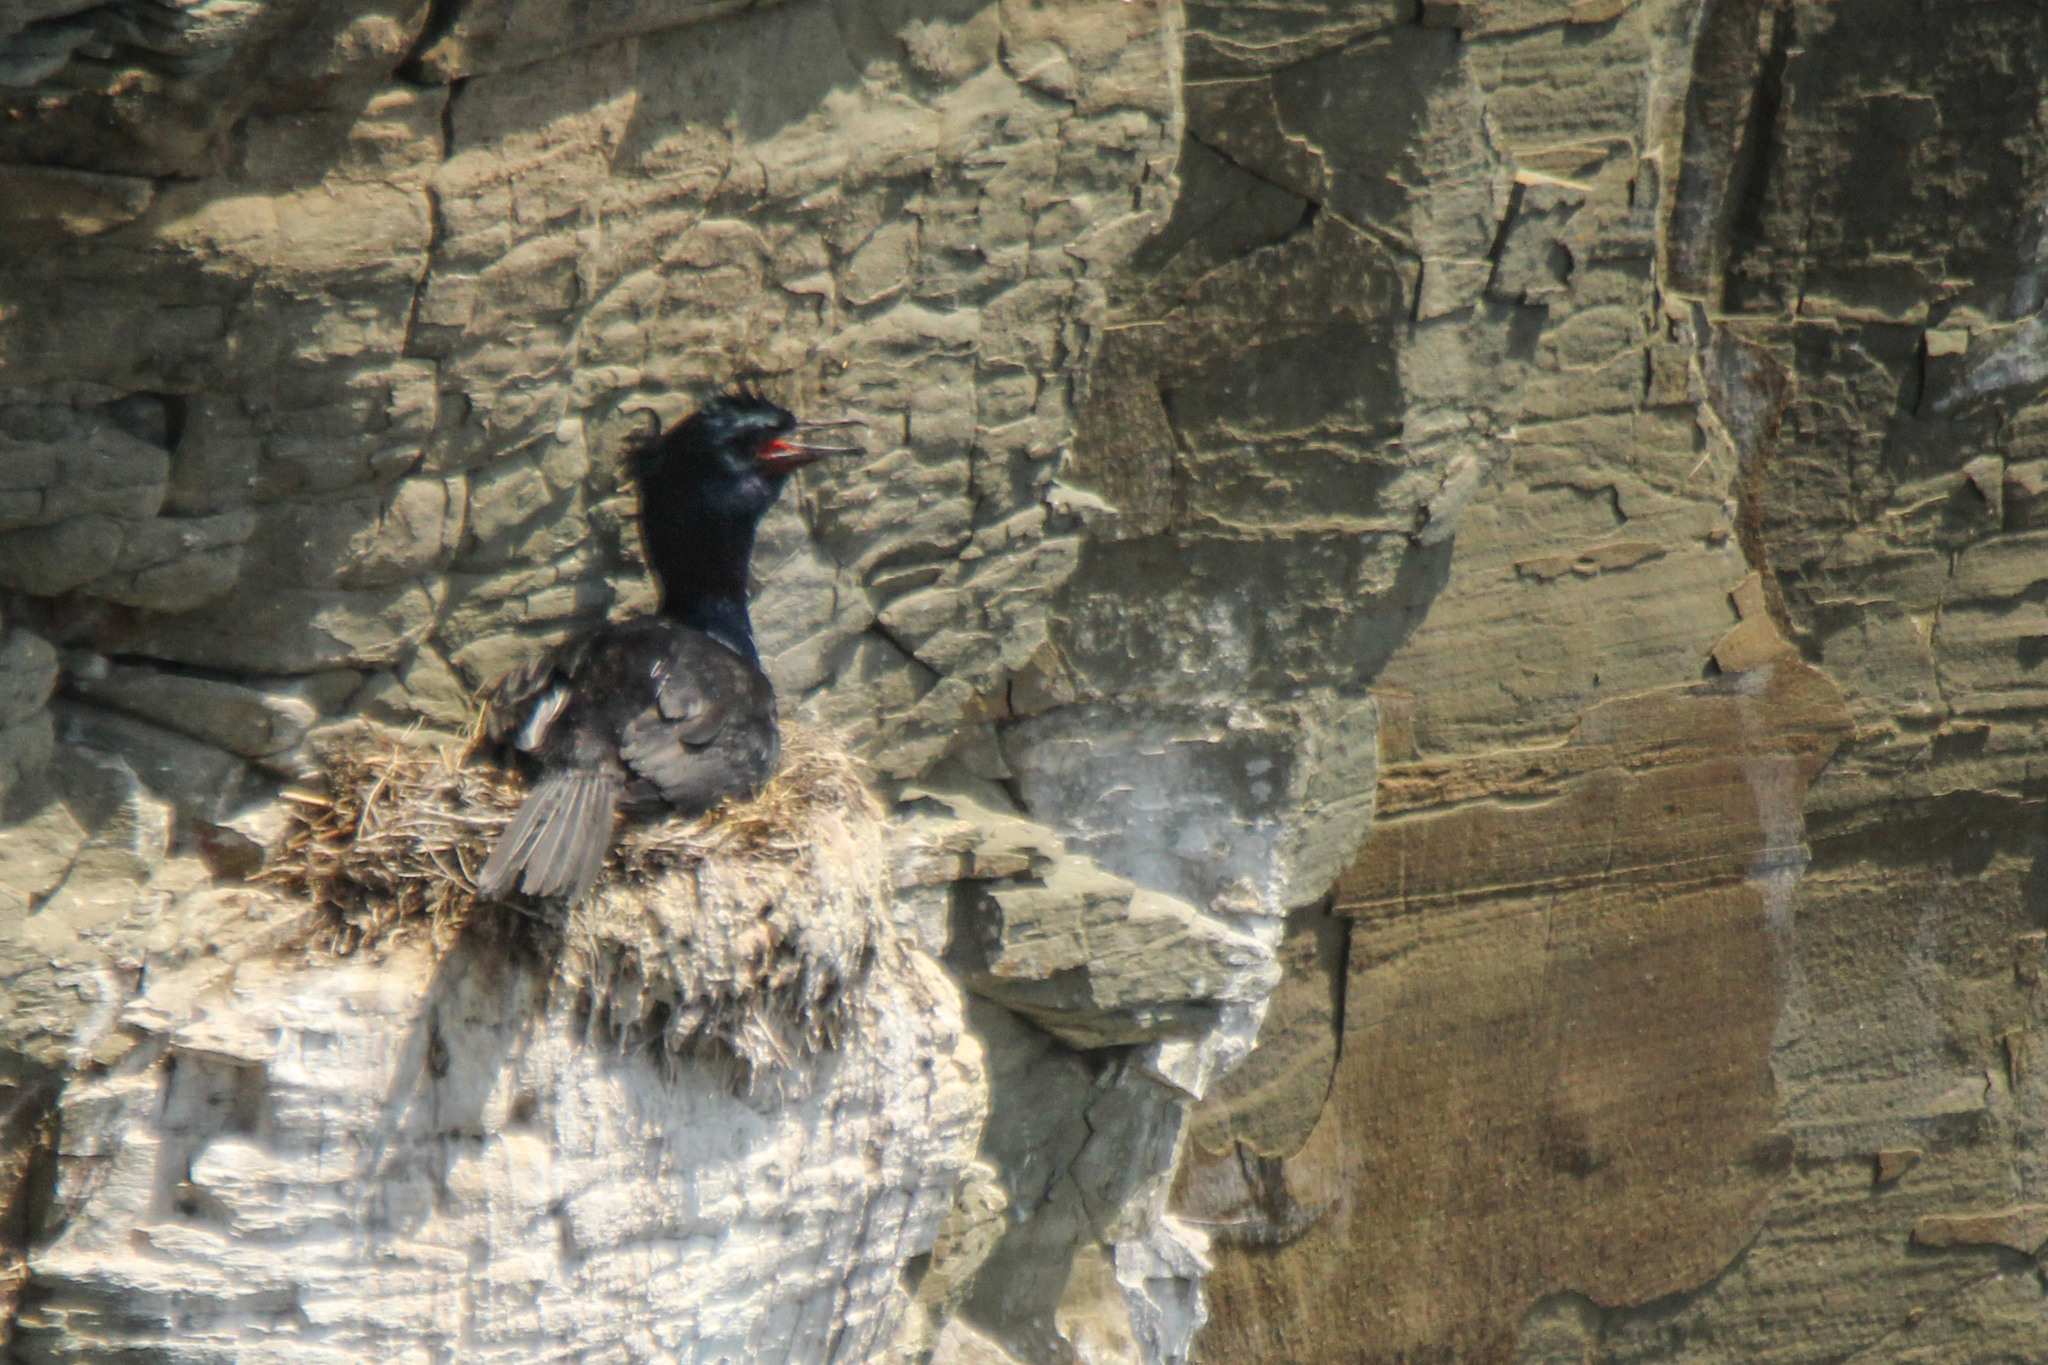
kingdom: Animalia
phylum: Chordata
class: Aves
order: Suliformes
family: Phalacrocoracidae
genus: Phalacrocorax
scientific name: Phalacrocorax pelagicus
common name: Pelagic cormorant
